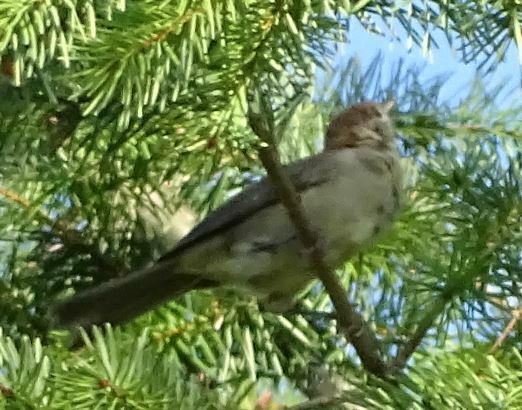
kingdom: Animalia
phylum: Chordata
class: Aves
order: Passeriformes
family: Sylviidae
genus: Sylvia
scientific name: Sylvia atricapilla
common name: Eurasian blackcap
